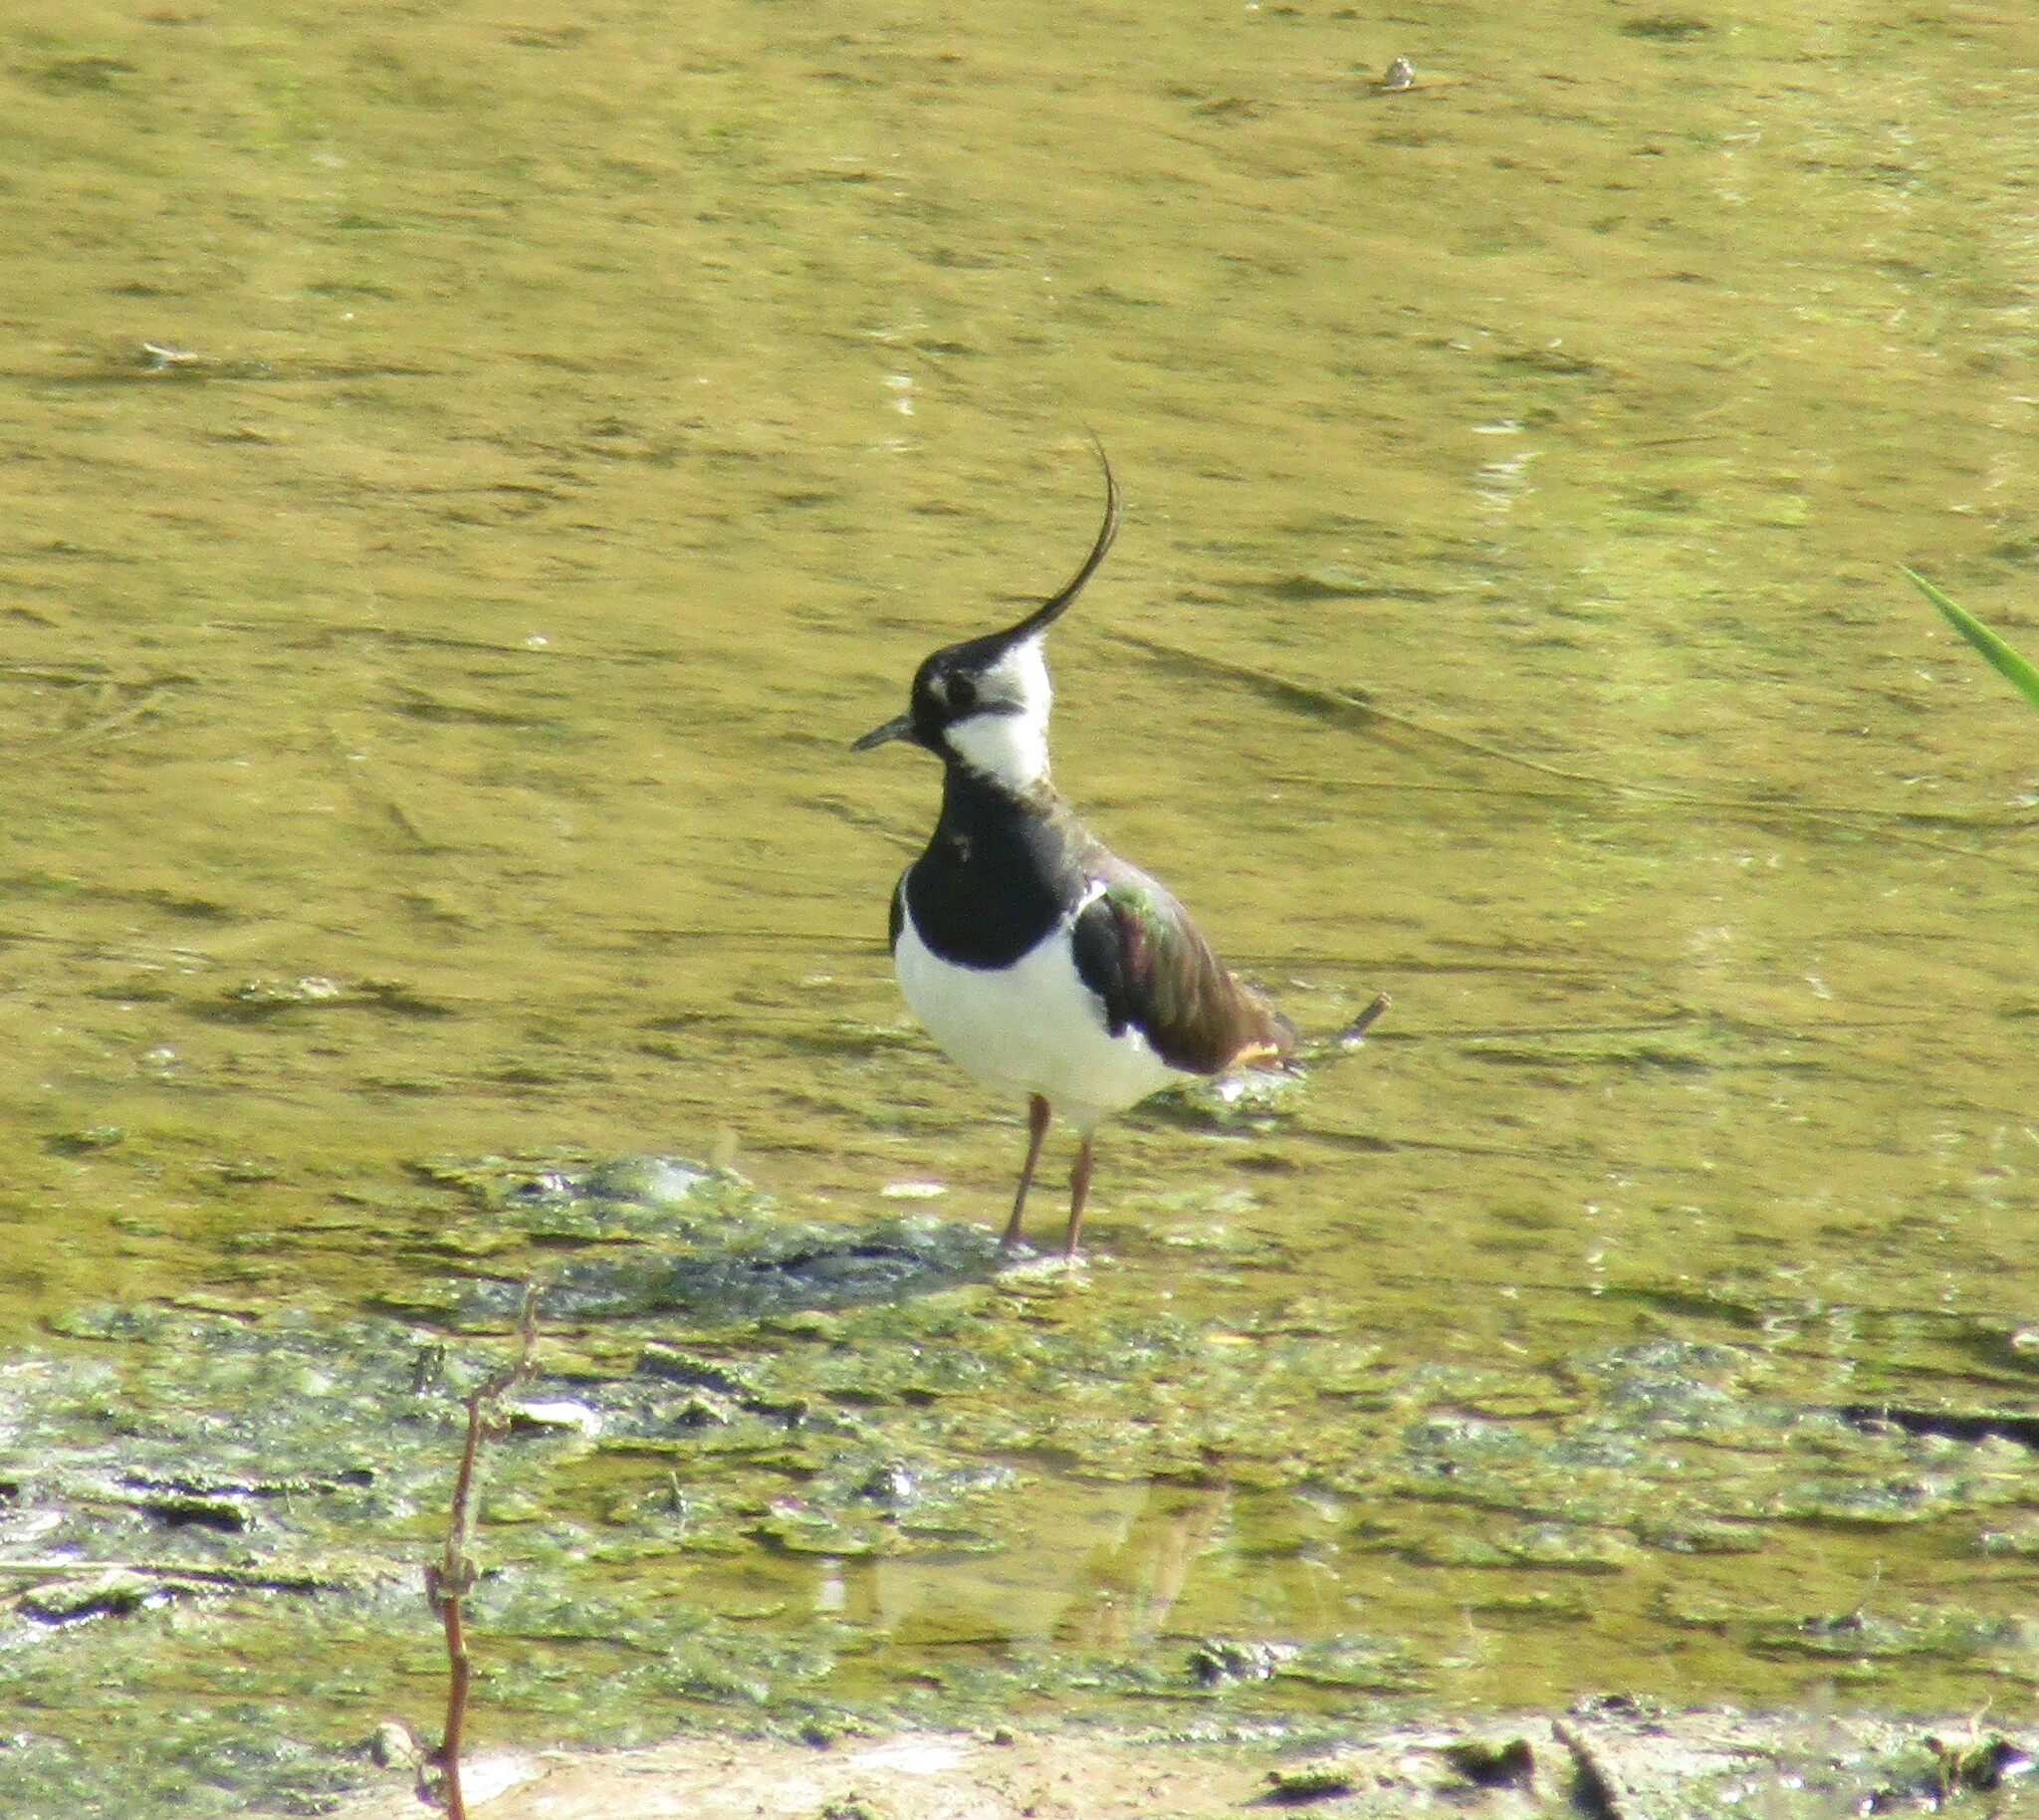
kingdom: Animalia
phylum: Chordata
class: Aves
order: Charadriiformes
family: Charadriidae
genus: Vanellus
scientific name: Vanellus vanellus
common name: Northern lapwing
